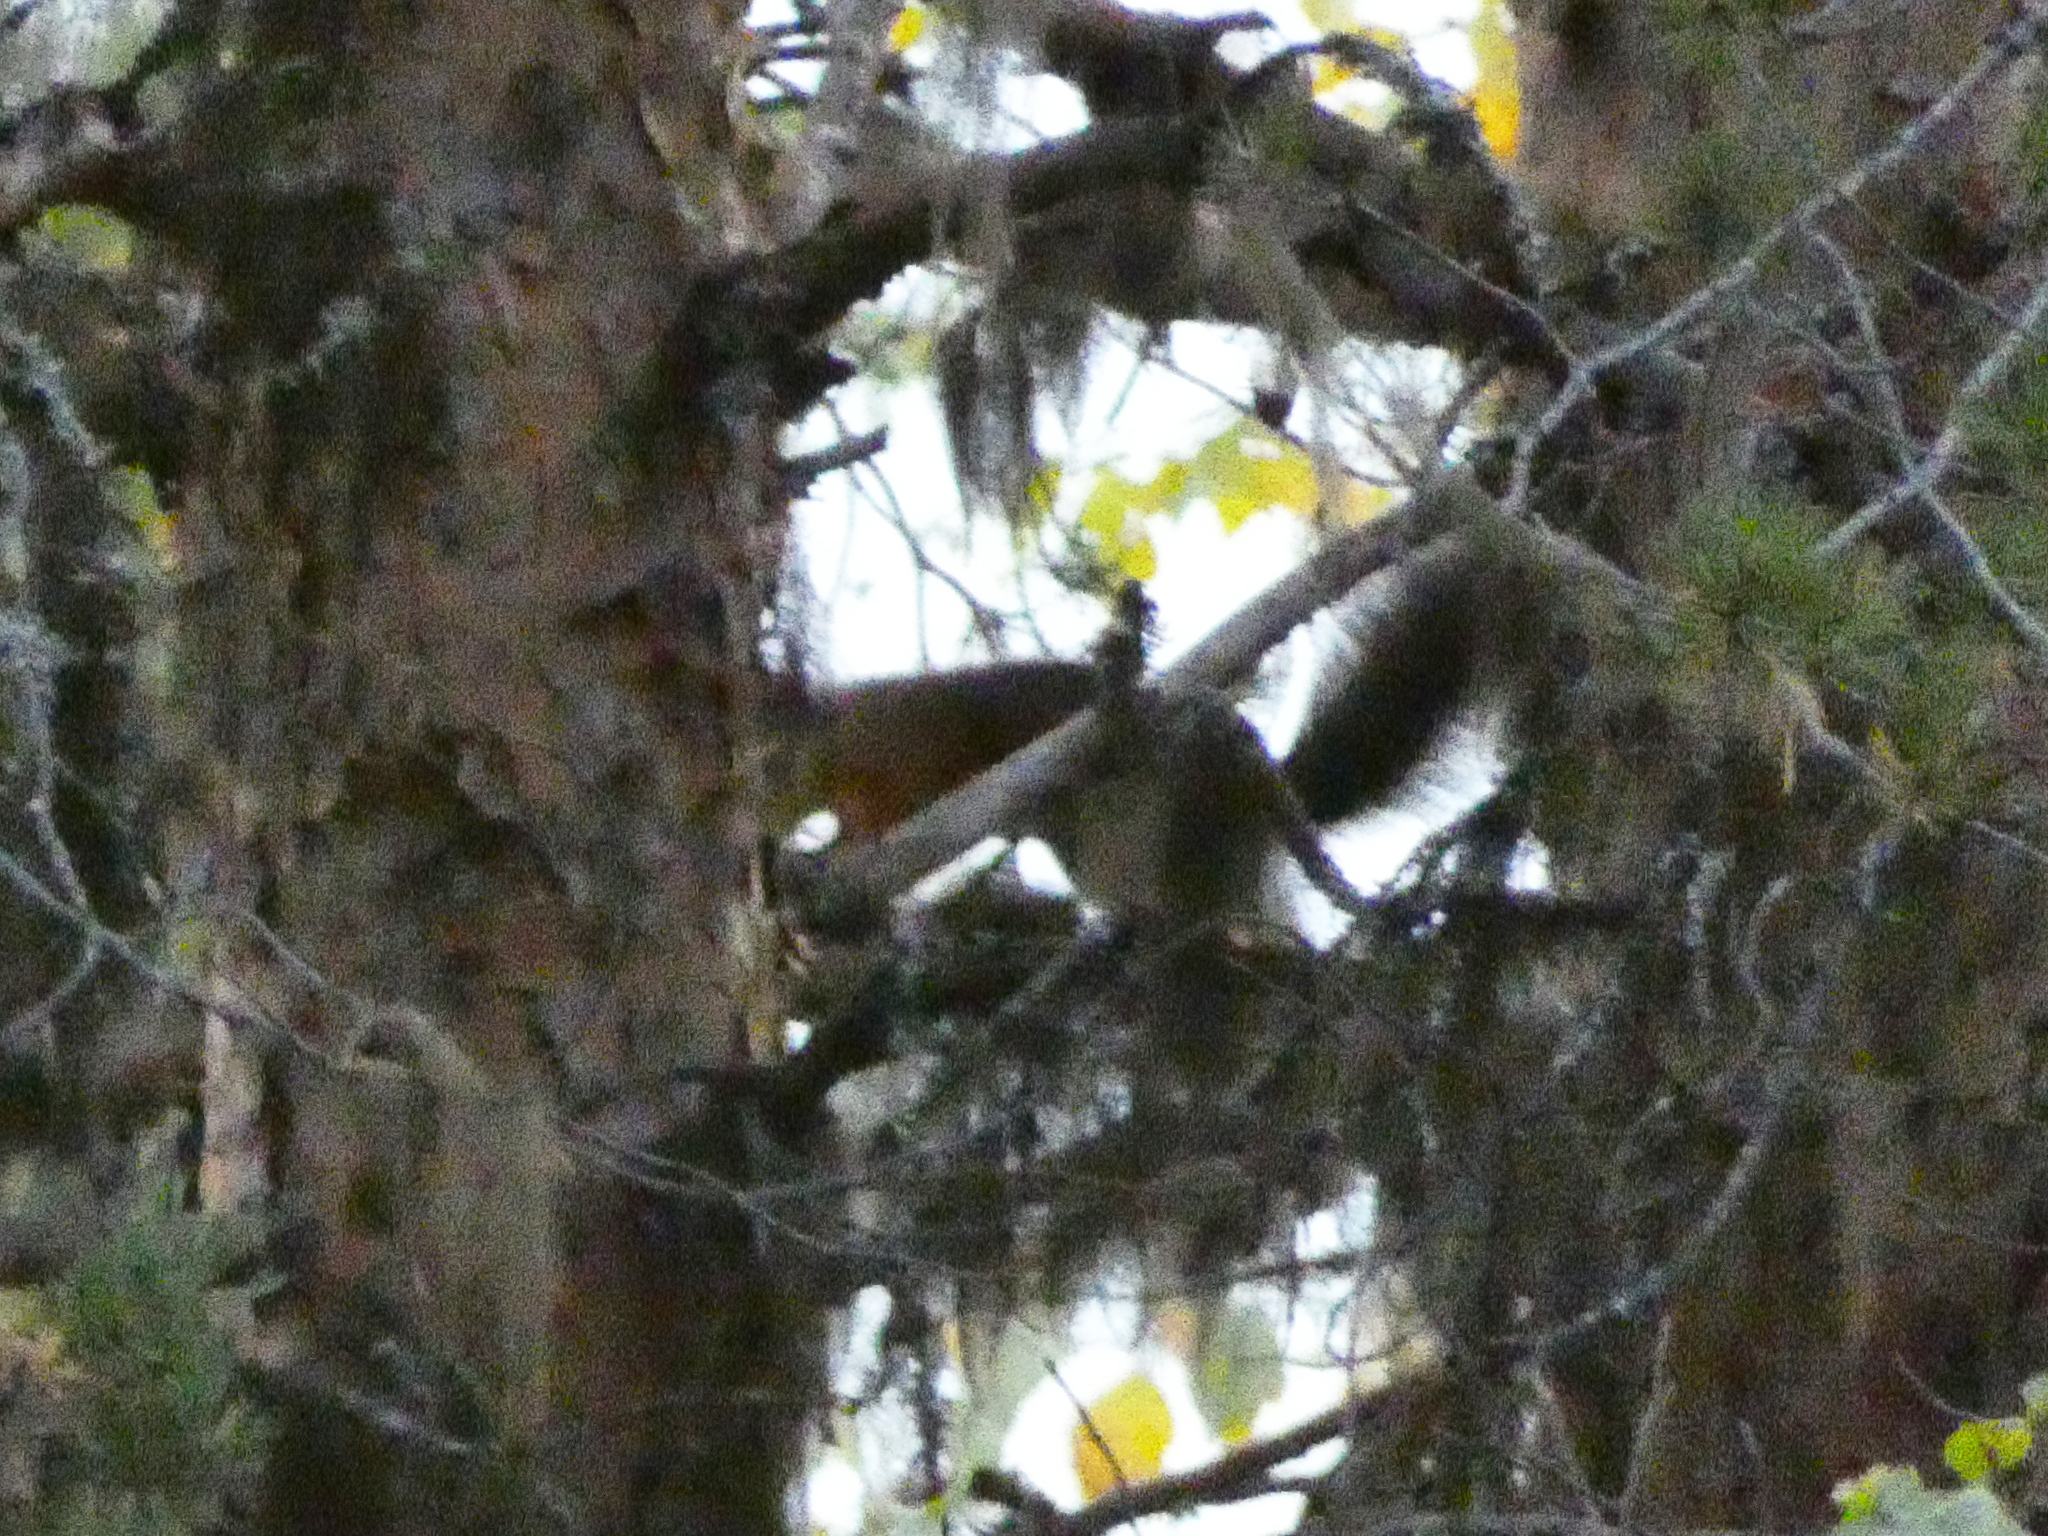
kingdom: Animalia
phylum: Chordata
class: Mammalia
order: Rodentia
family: Sciuridae
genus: Sciurus
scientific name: Sciurus vulgaris
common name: Eurasian red squirrel
